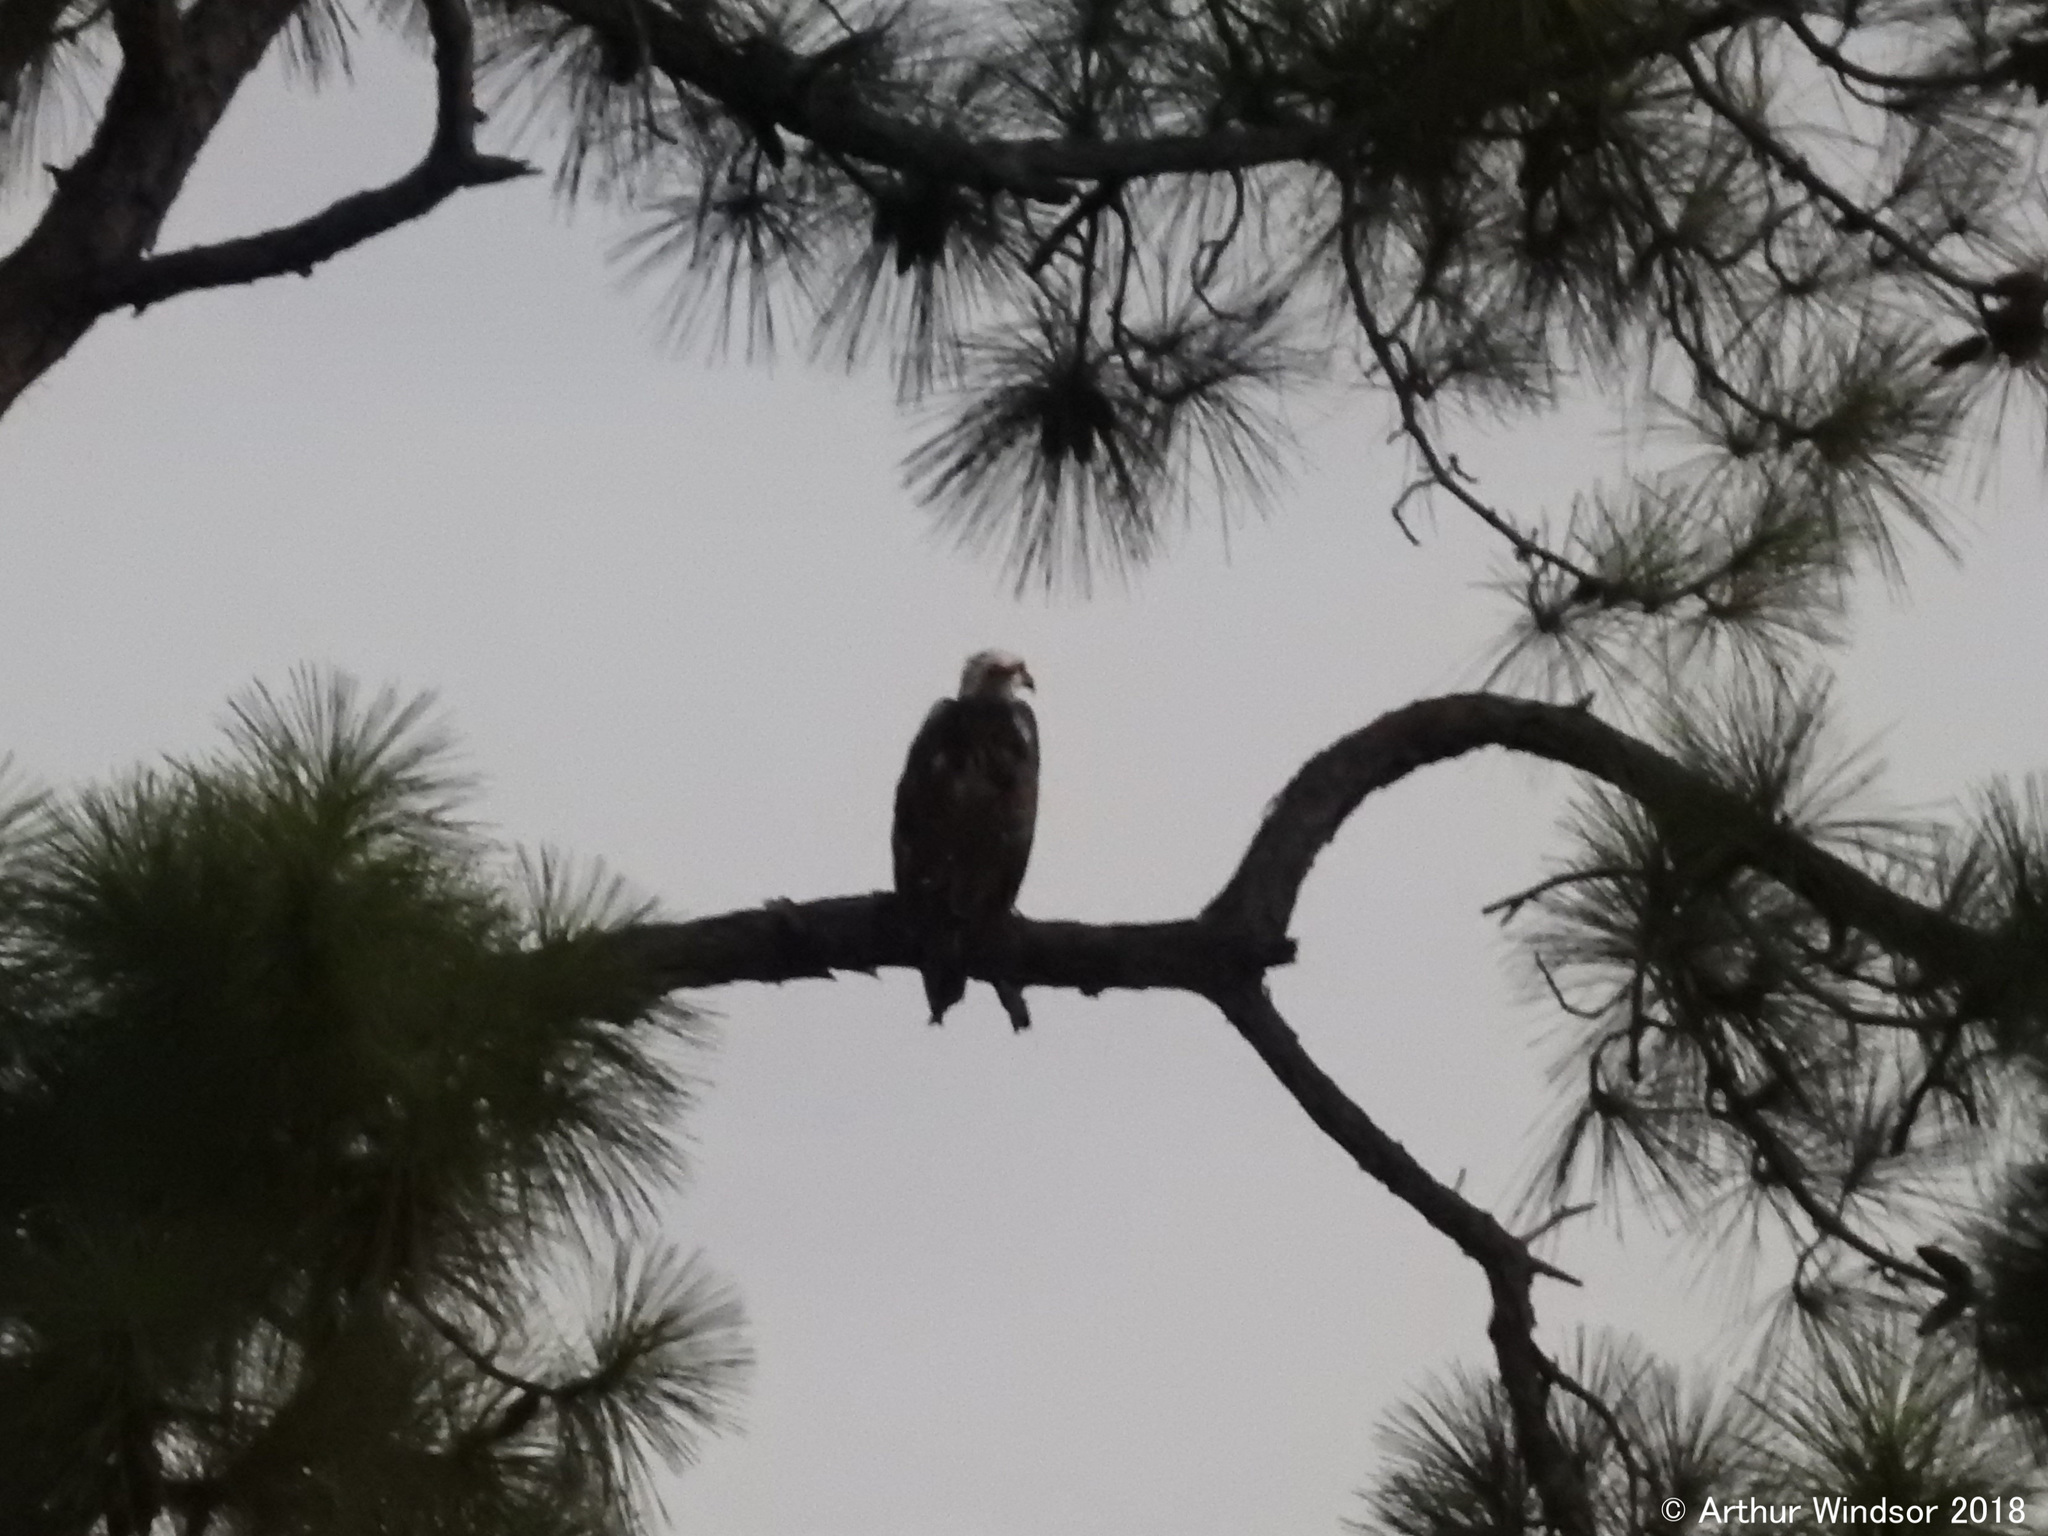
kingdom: Animalia
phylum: Chordata
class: Aves
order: Accipitriformes
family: Pandionidae
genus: Pandion
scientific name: Pandion haliaetus
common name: Osprey
